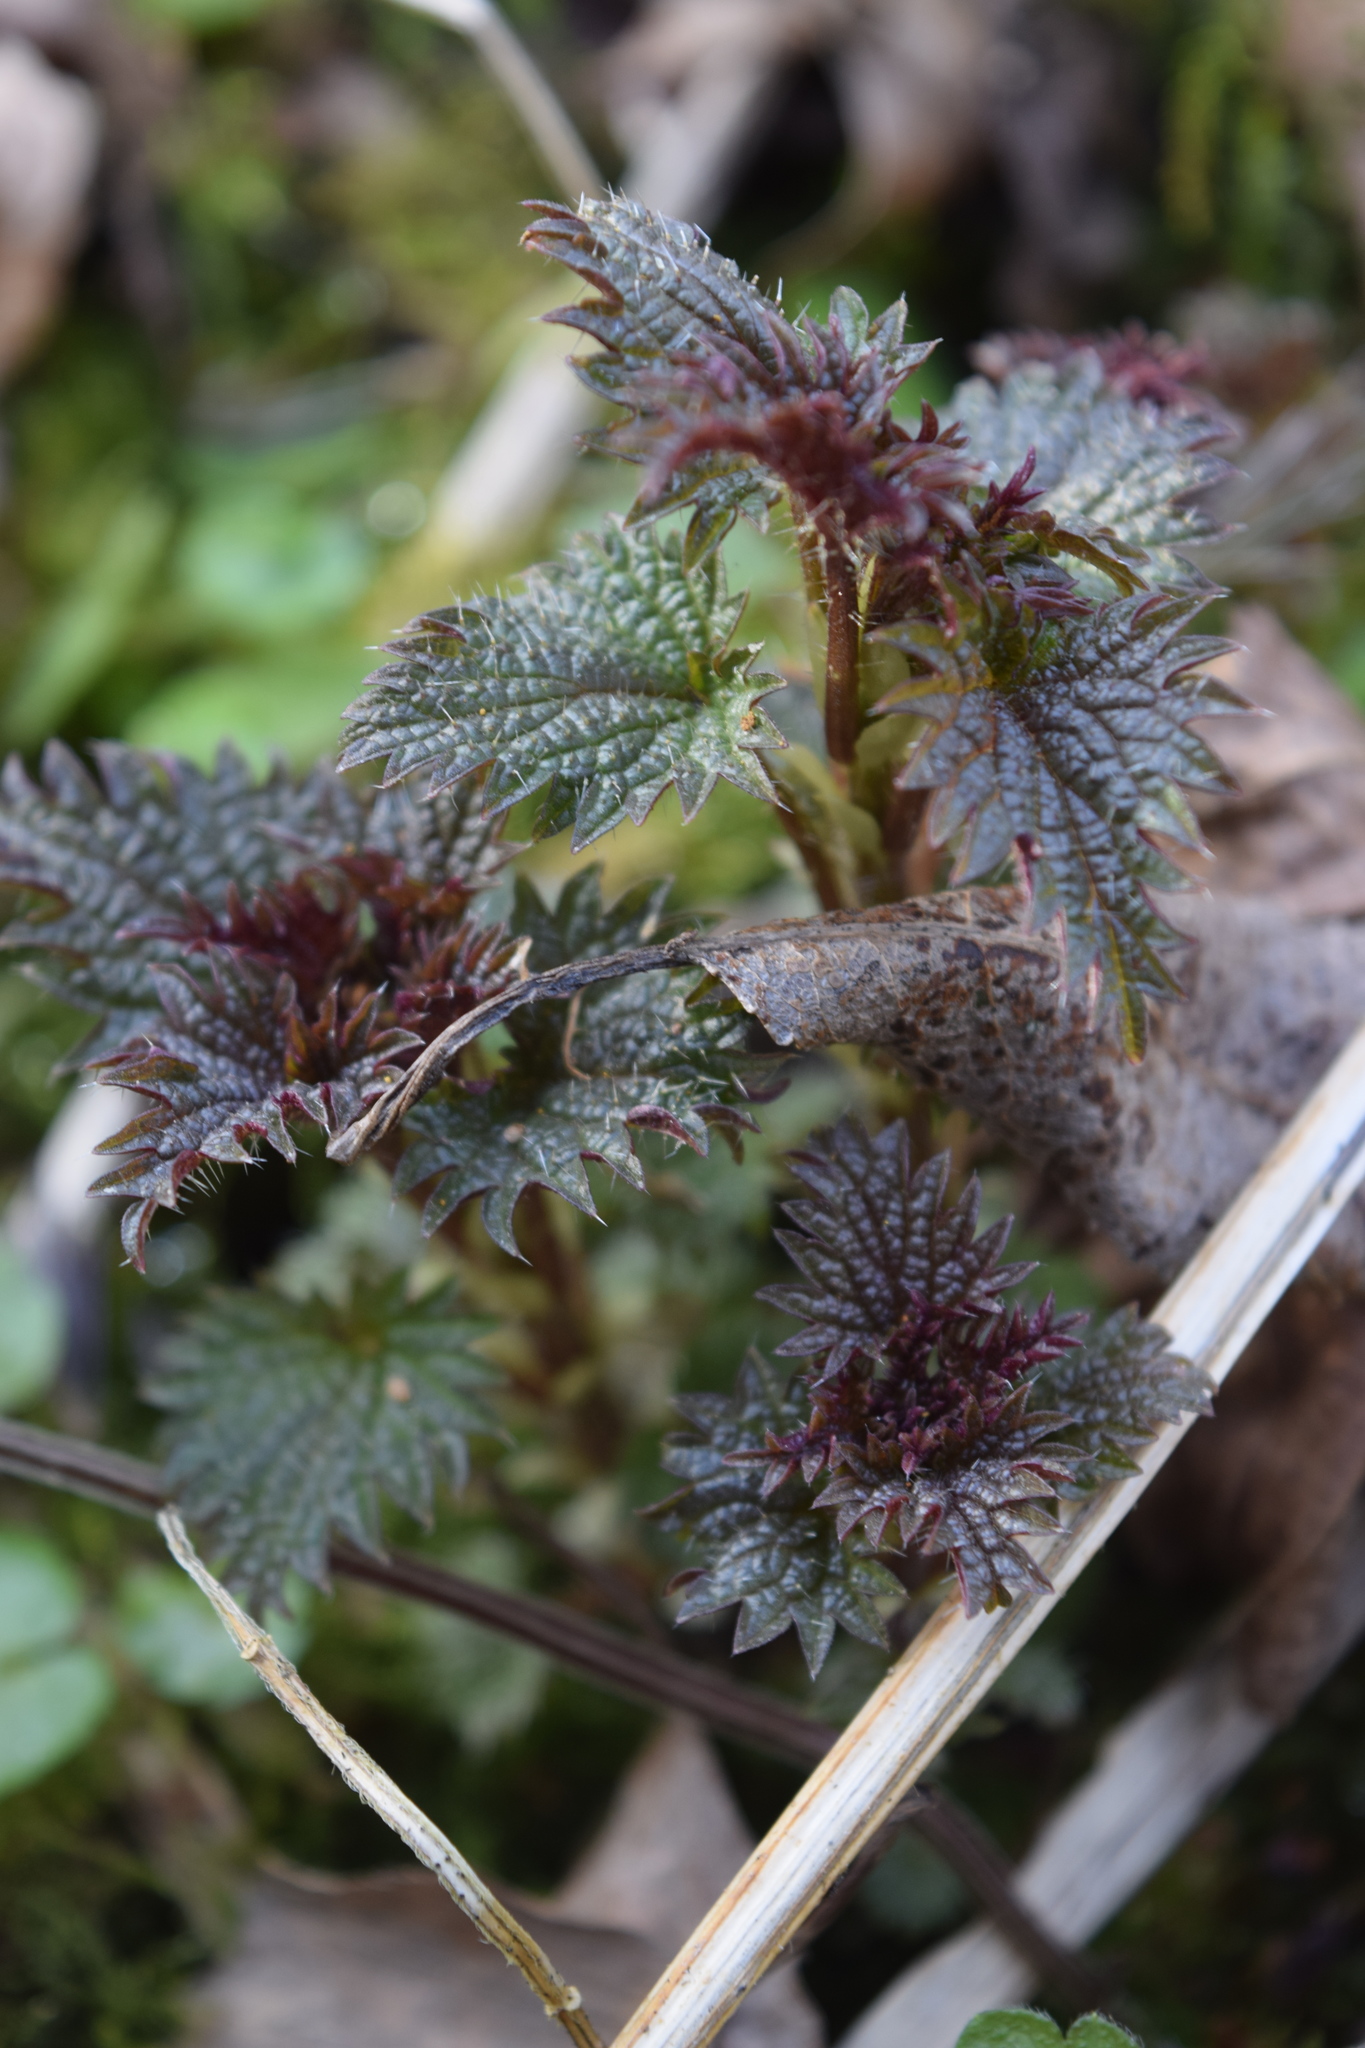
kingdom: Plantae
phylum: Tracheophyta
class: Magnoliopsida
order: Rosales
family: Urticaceae
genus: Urtica
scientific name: Urtica dioica
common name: Common nettle
